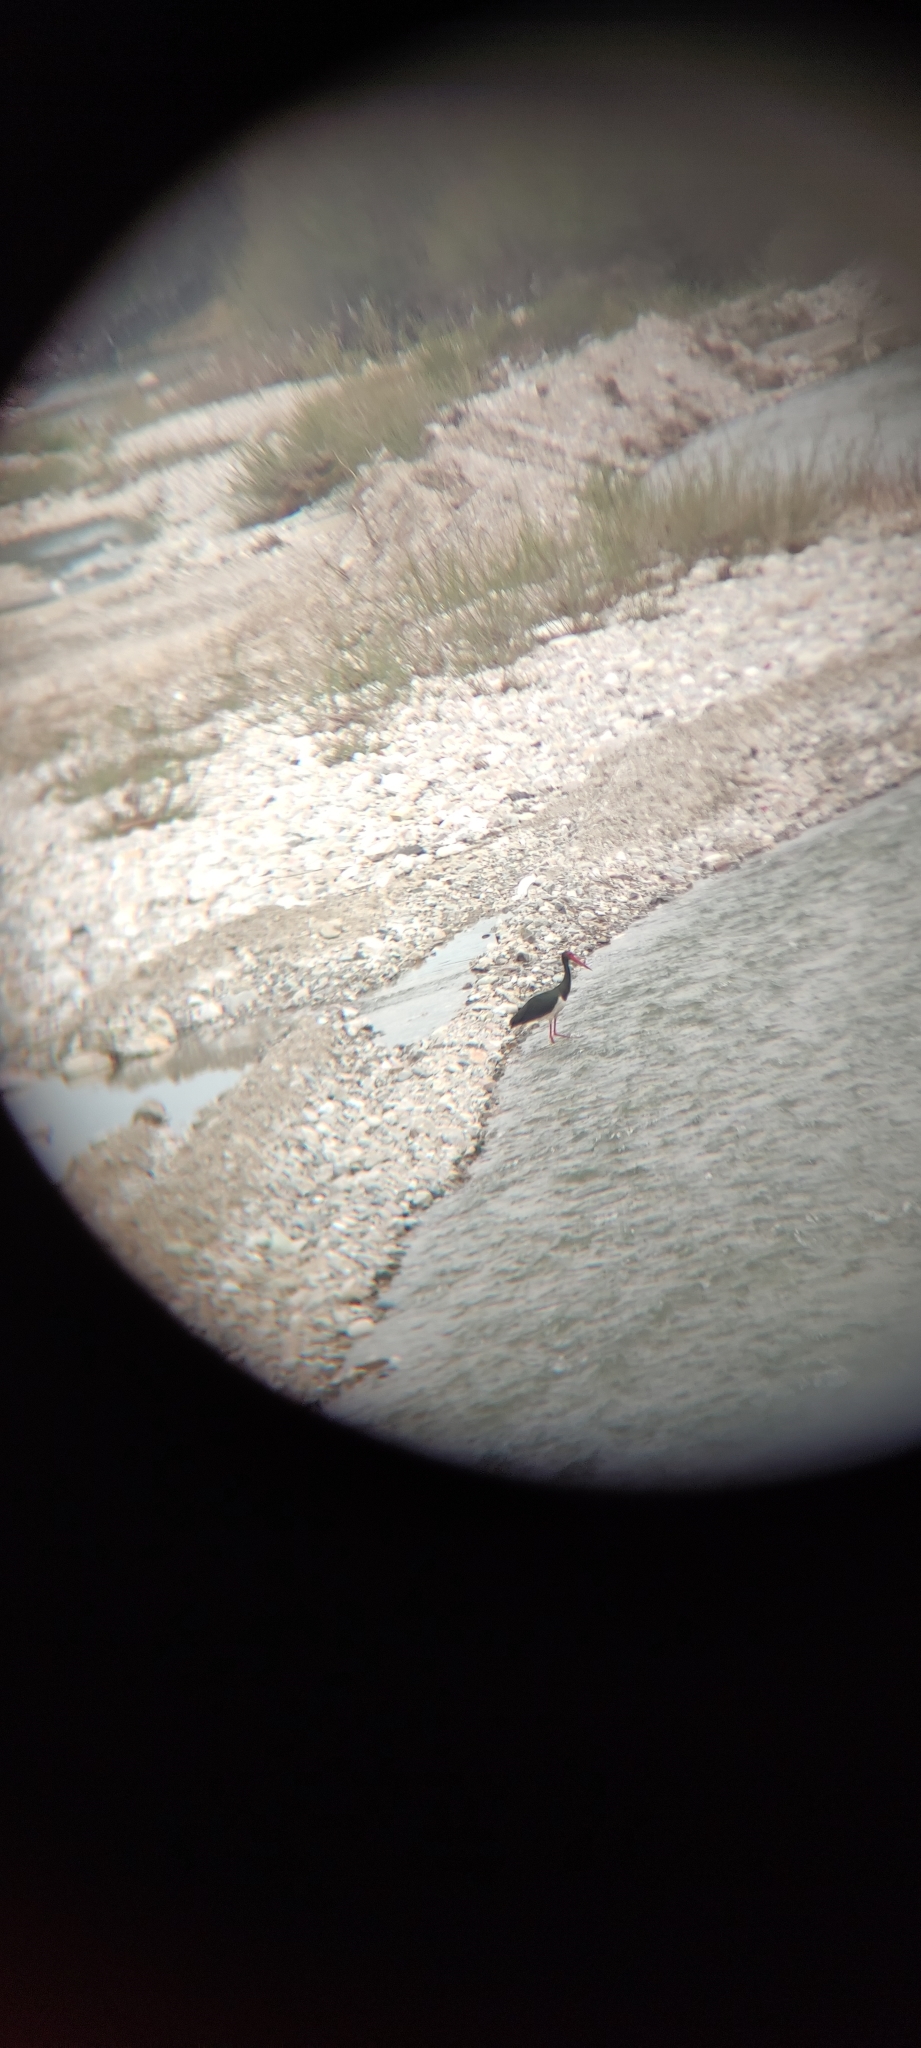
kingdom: Animalia
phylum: Chordata
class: Aves
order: Ciconiiformes
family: Ciconiidae
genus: Ciconia
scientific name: Ciconia nigra
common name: Black stork
